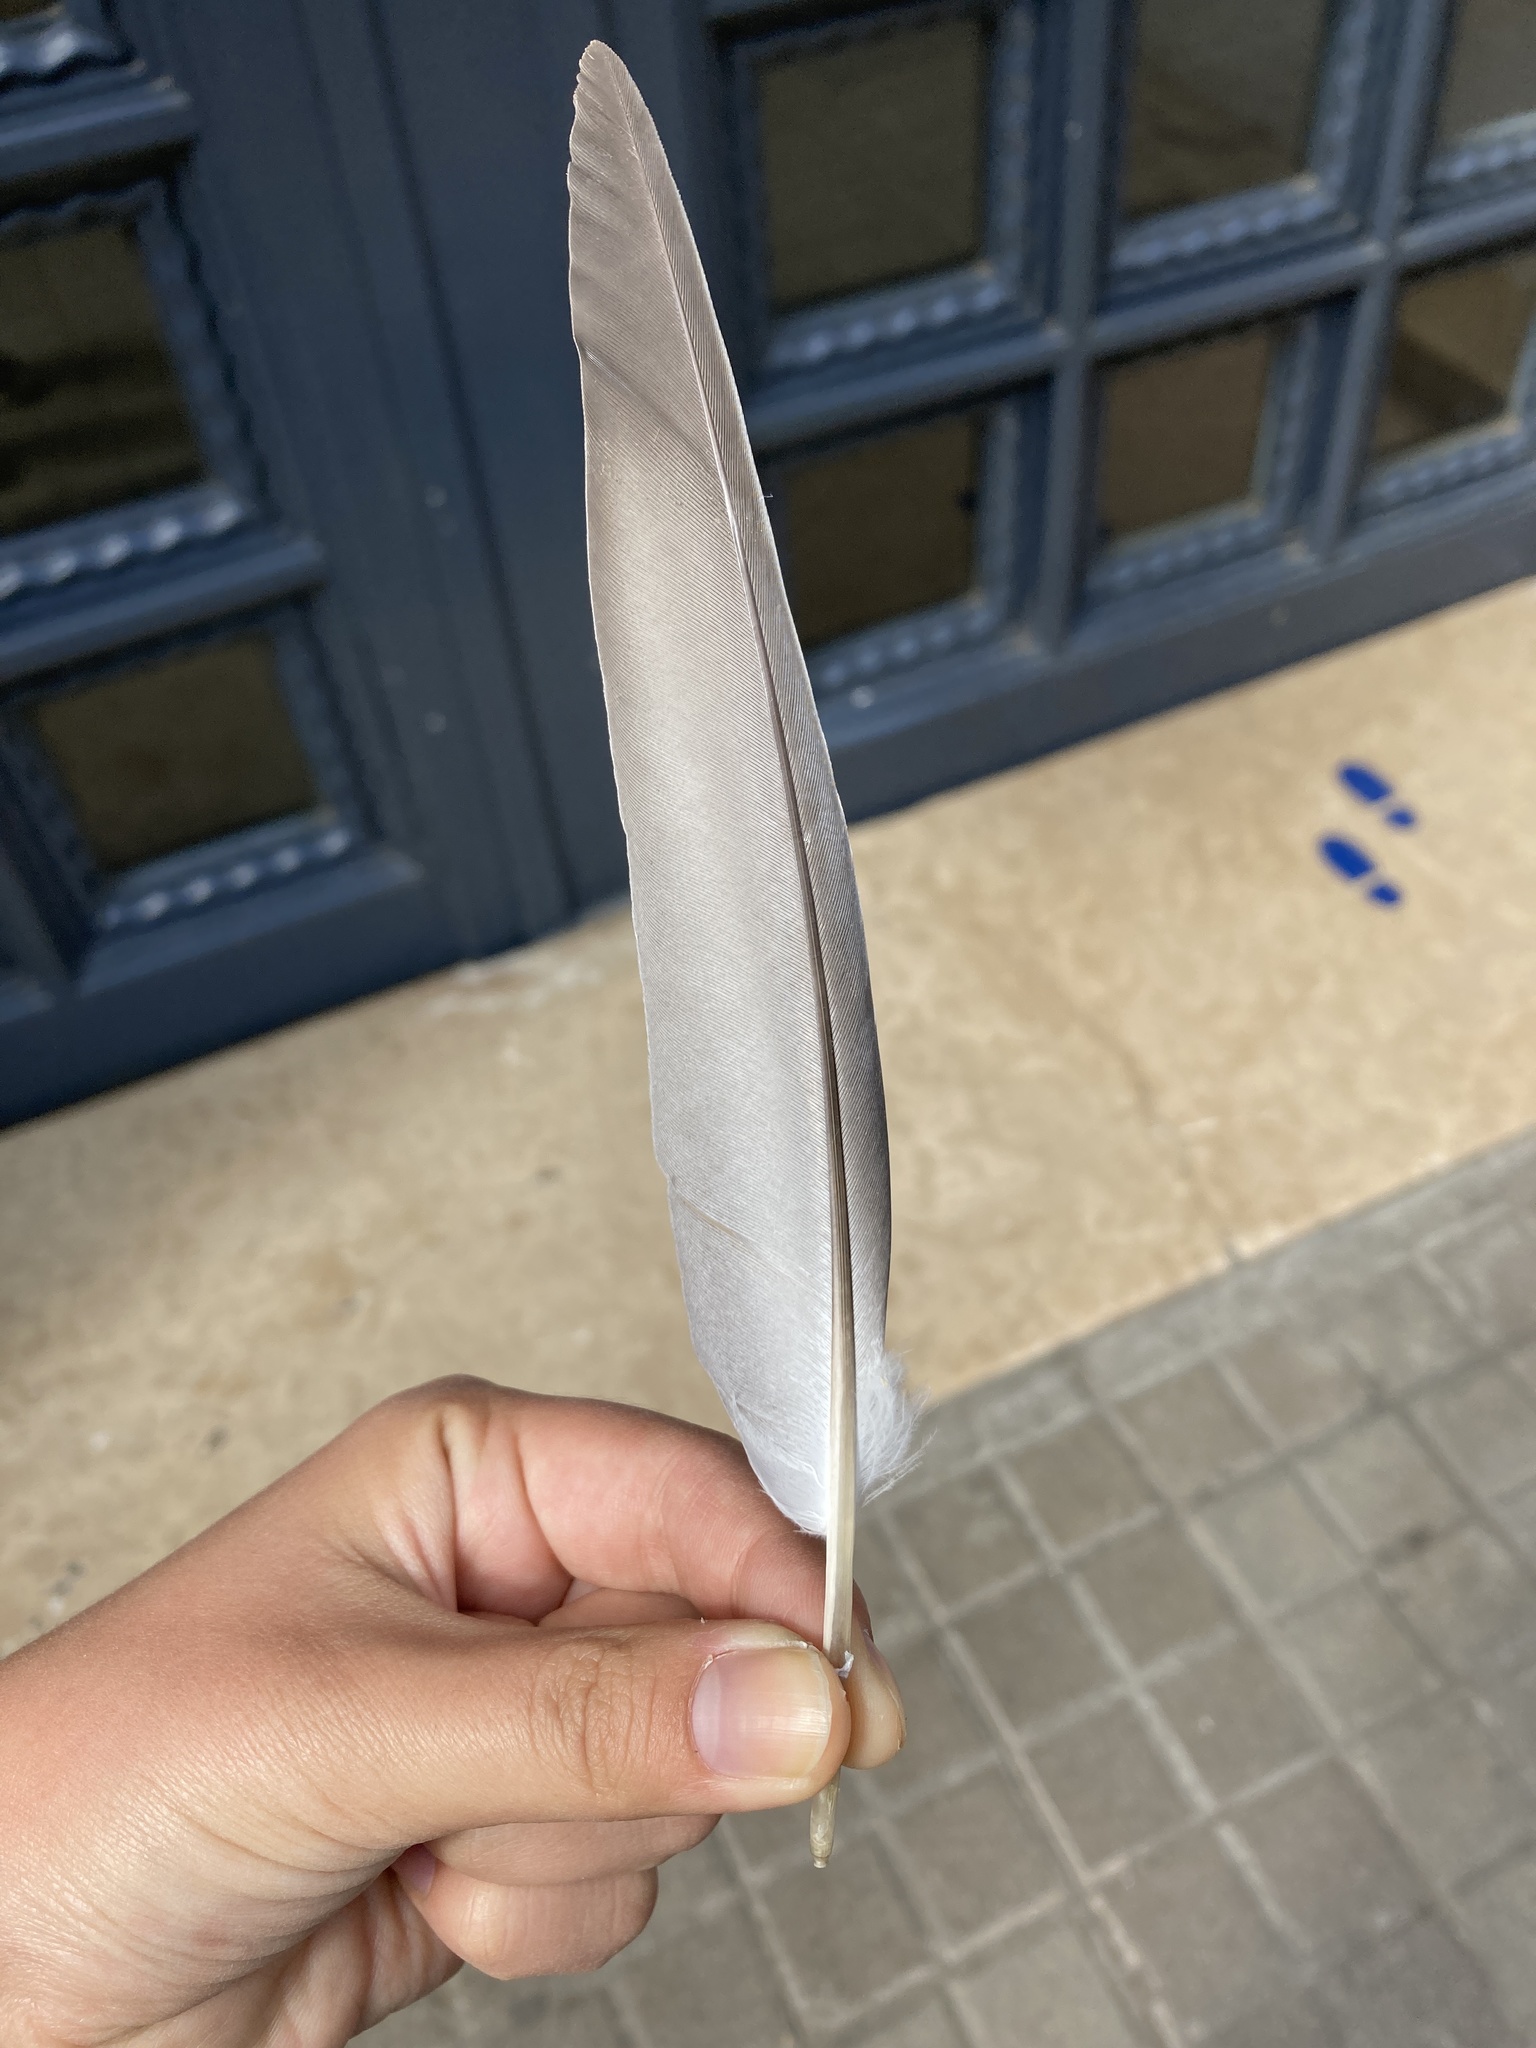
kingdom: Animalia
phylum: Chordata
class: Aves
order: Columbiformes
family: Columbidae
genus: Columba
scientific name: Columba livia
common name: Rock pigeon
